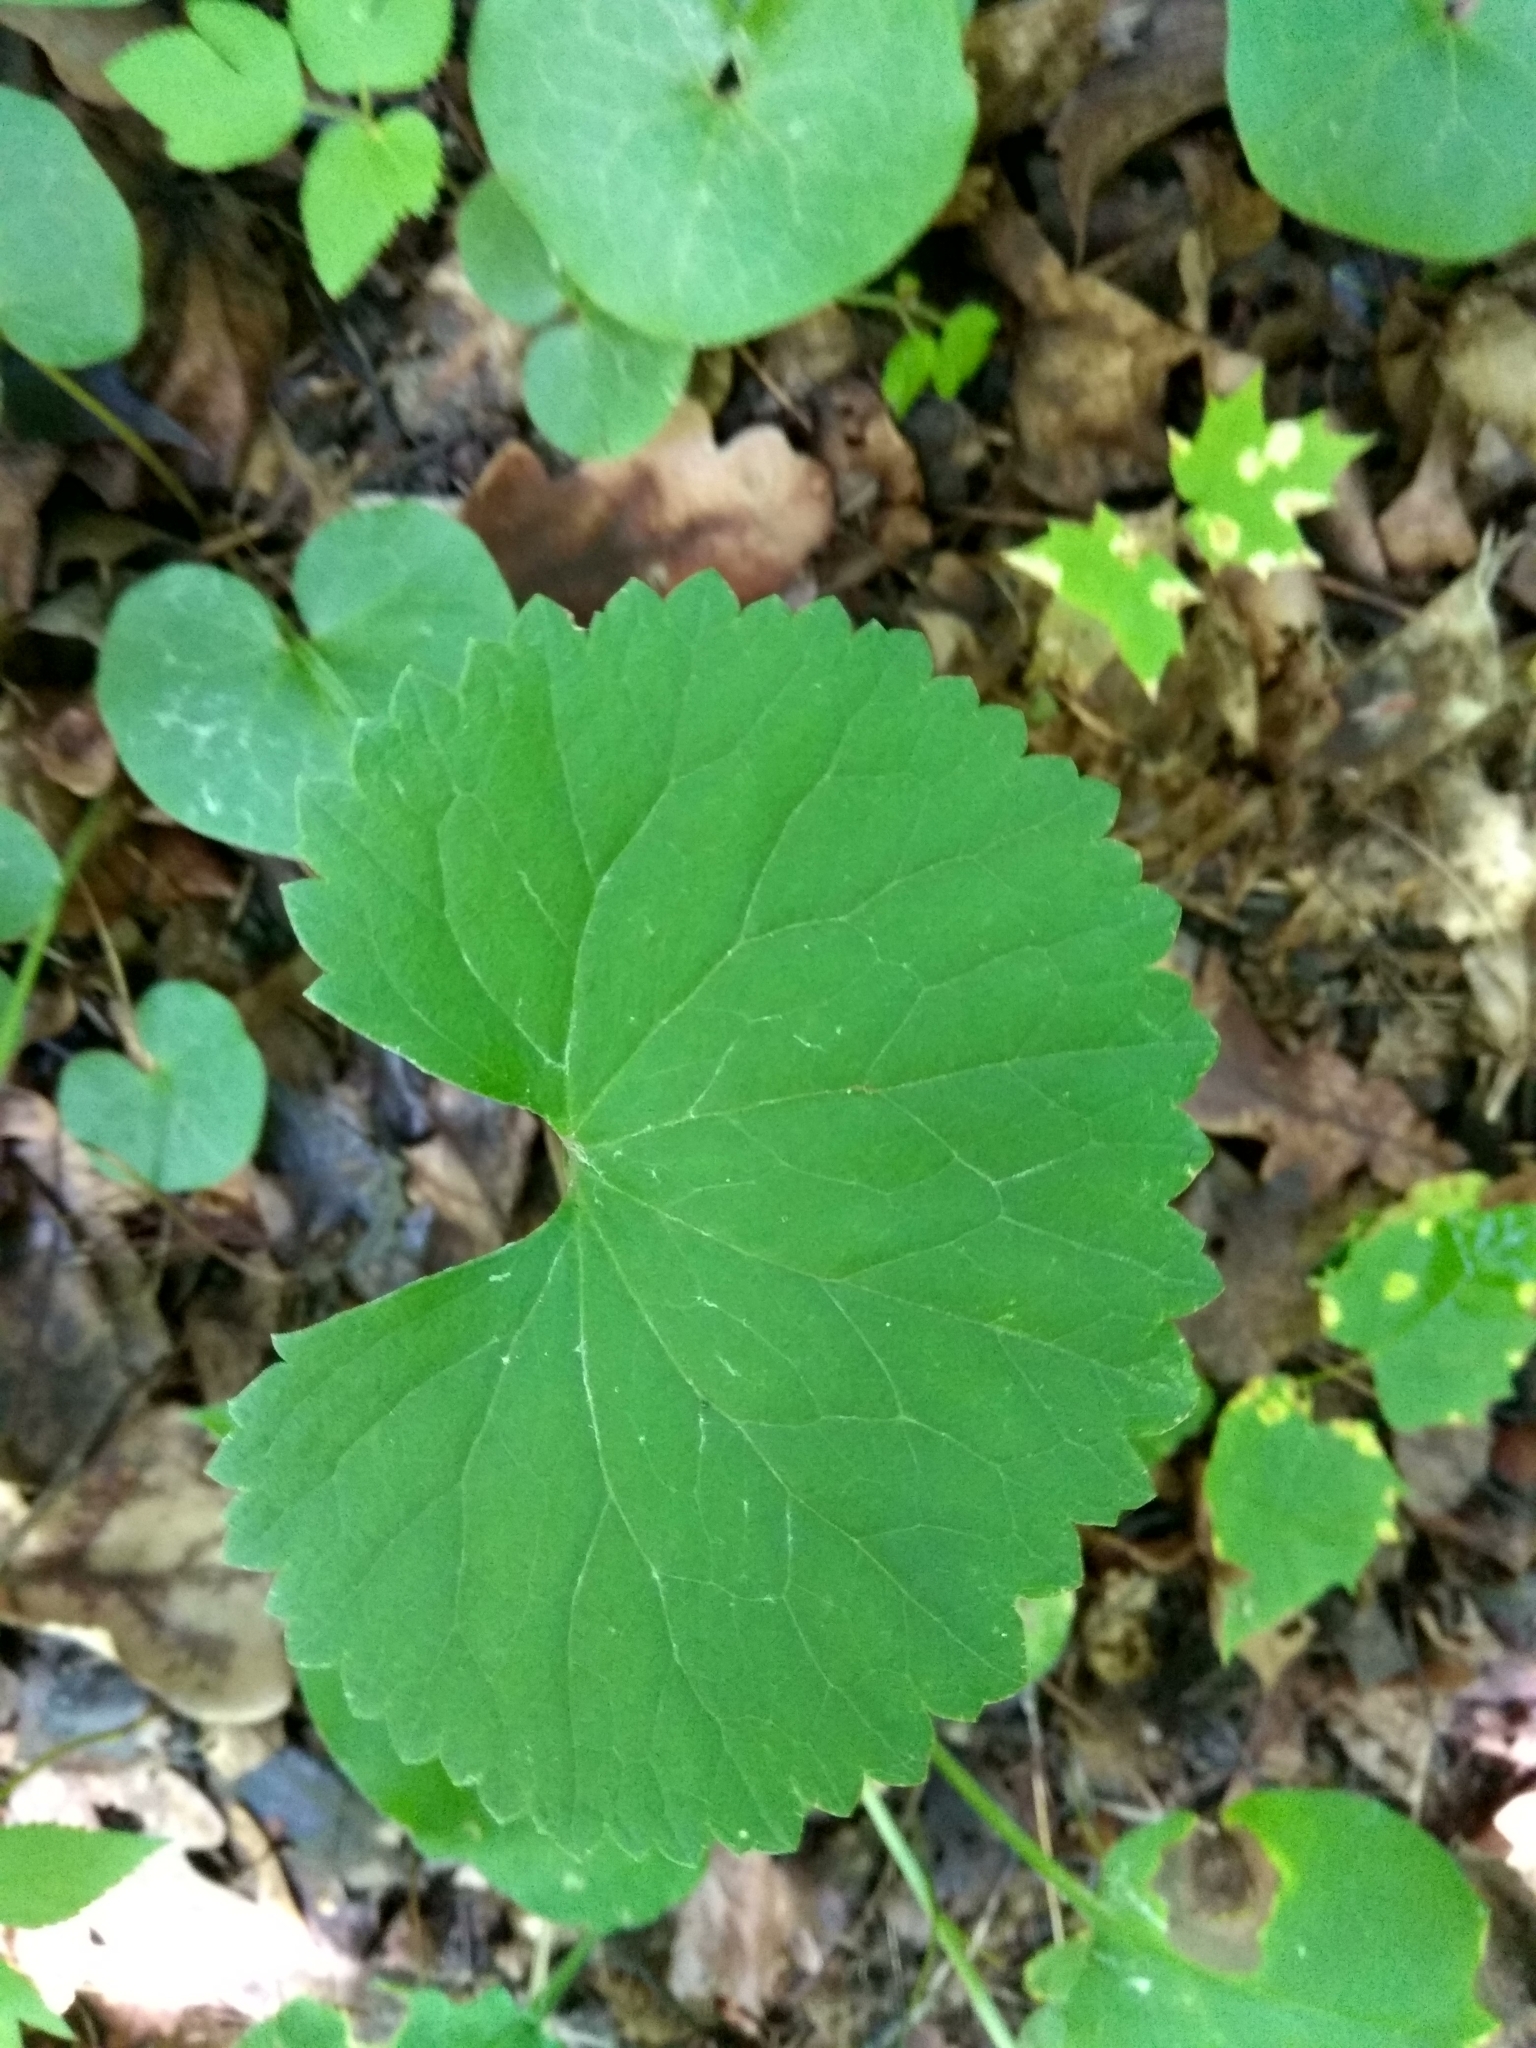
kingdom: Plantae
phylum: Tracheophyta
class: Magnoliopsida
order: Ranunculales
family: Ranunculaceae
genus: Ranunculus
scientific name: Ranunculus cassubicus
